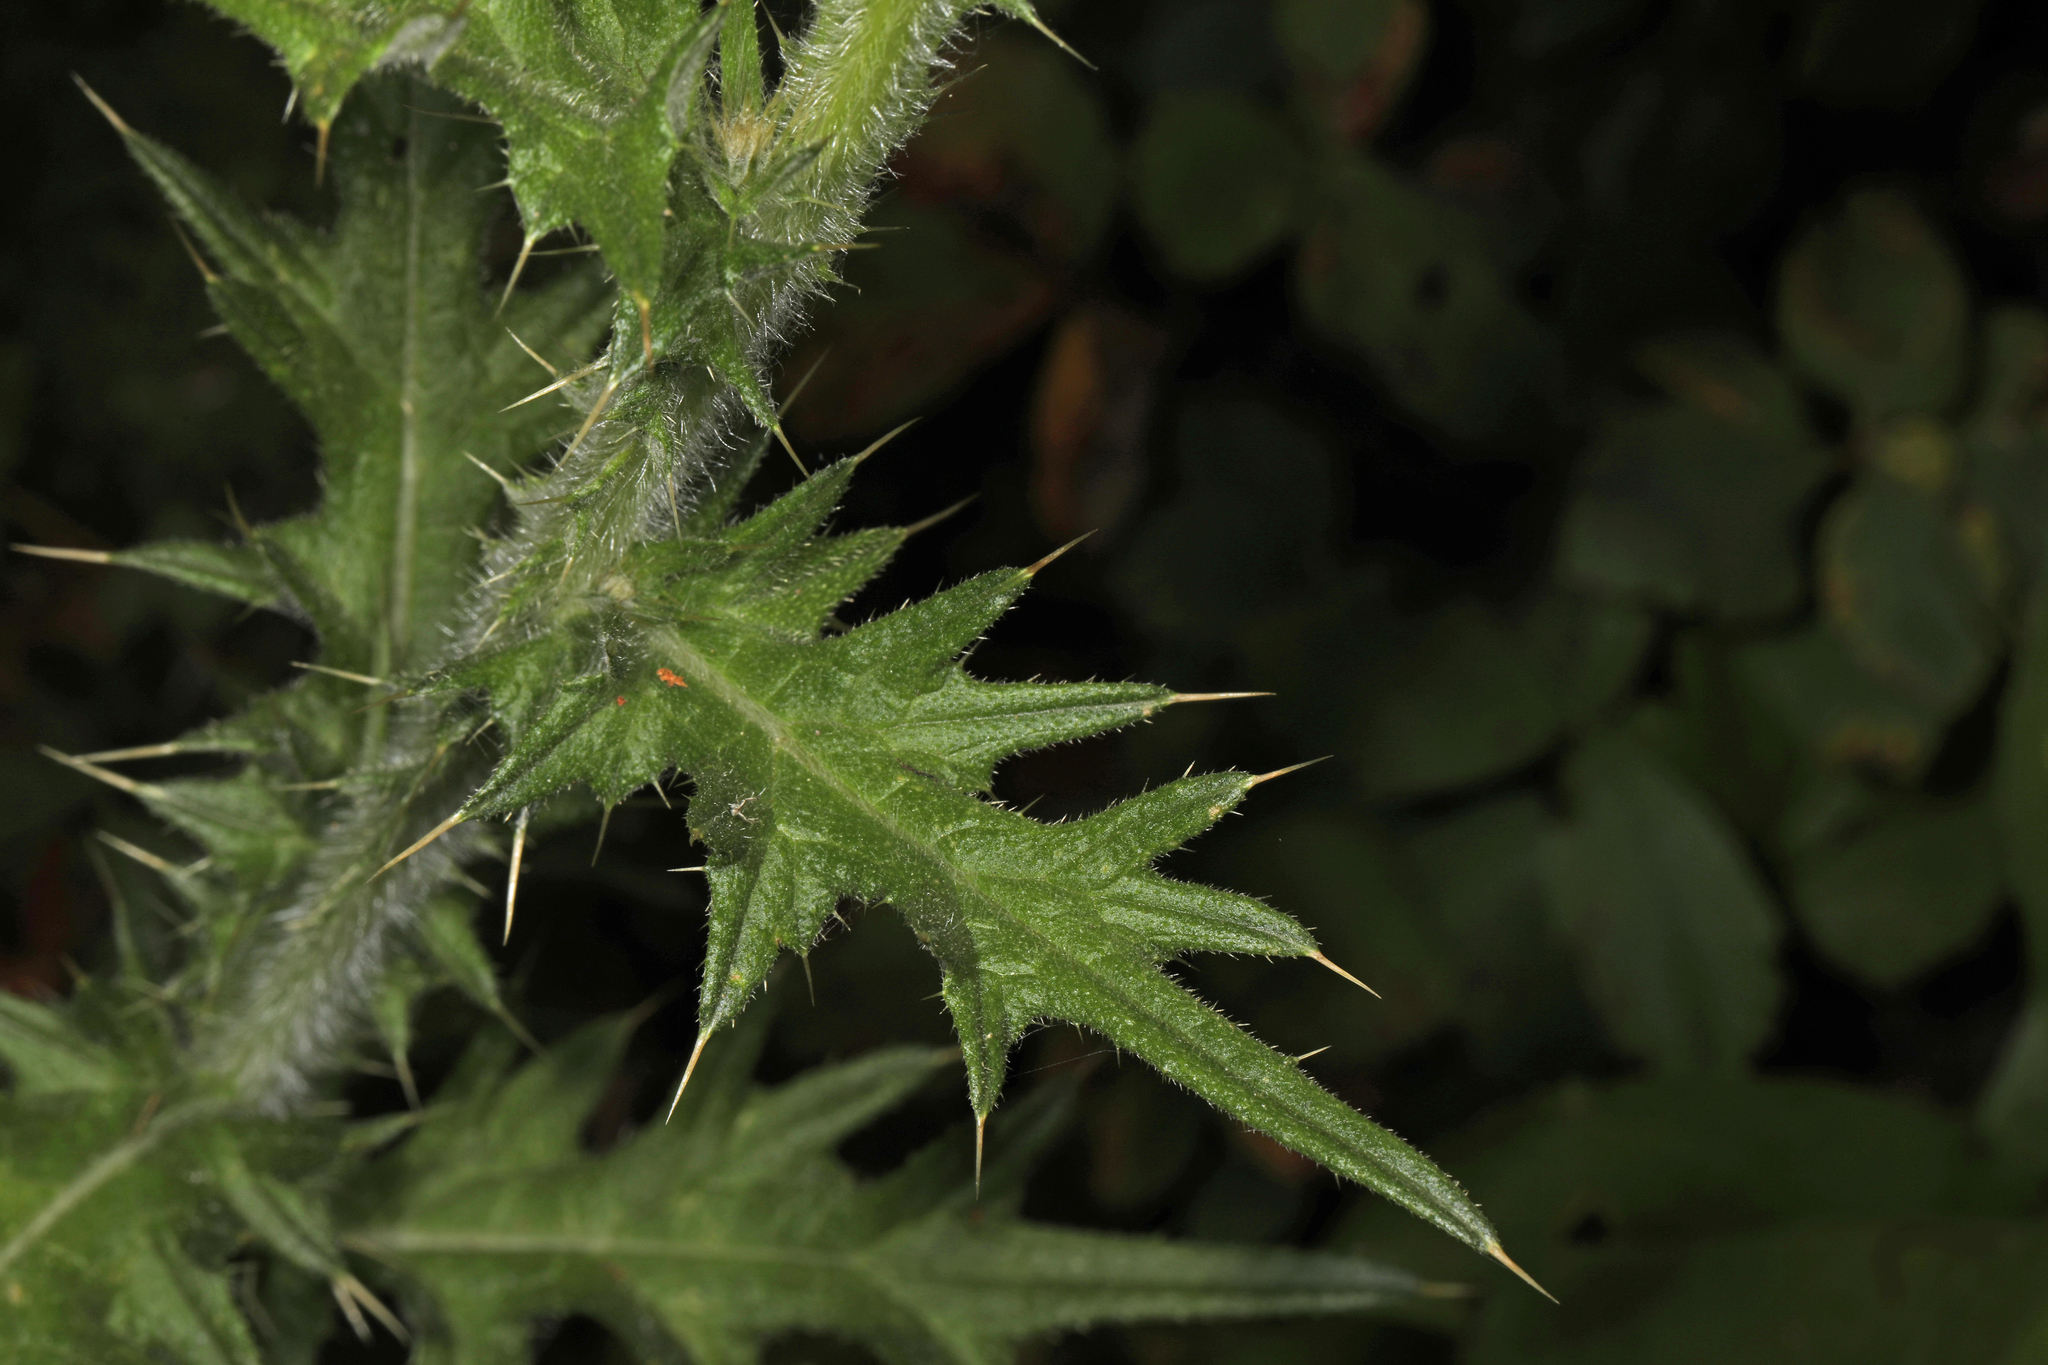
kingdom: Plantae
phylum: Tracheophyta
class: Magnoliopsida
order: Asterales
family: Asteraceae
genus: Cirsium
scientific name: Cirsium vulgare
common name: Bull thistle
